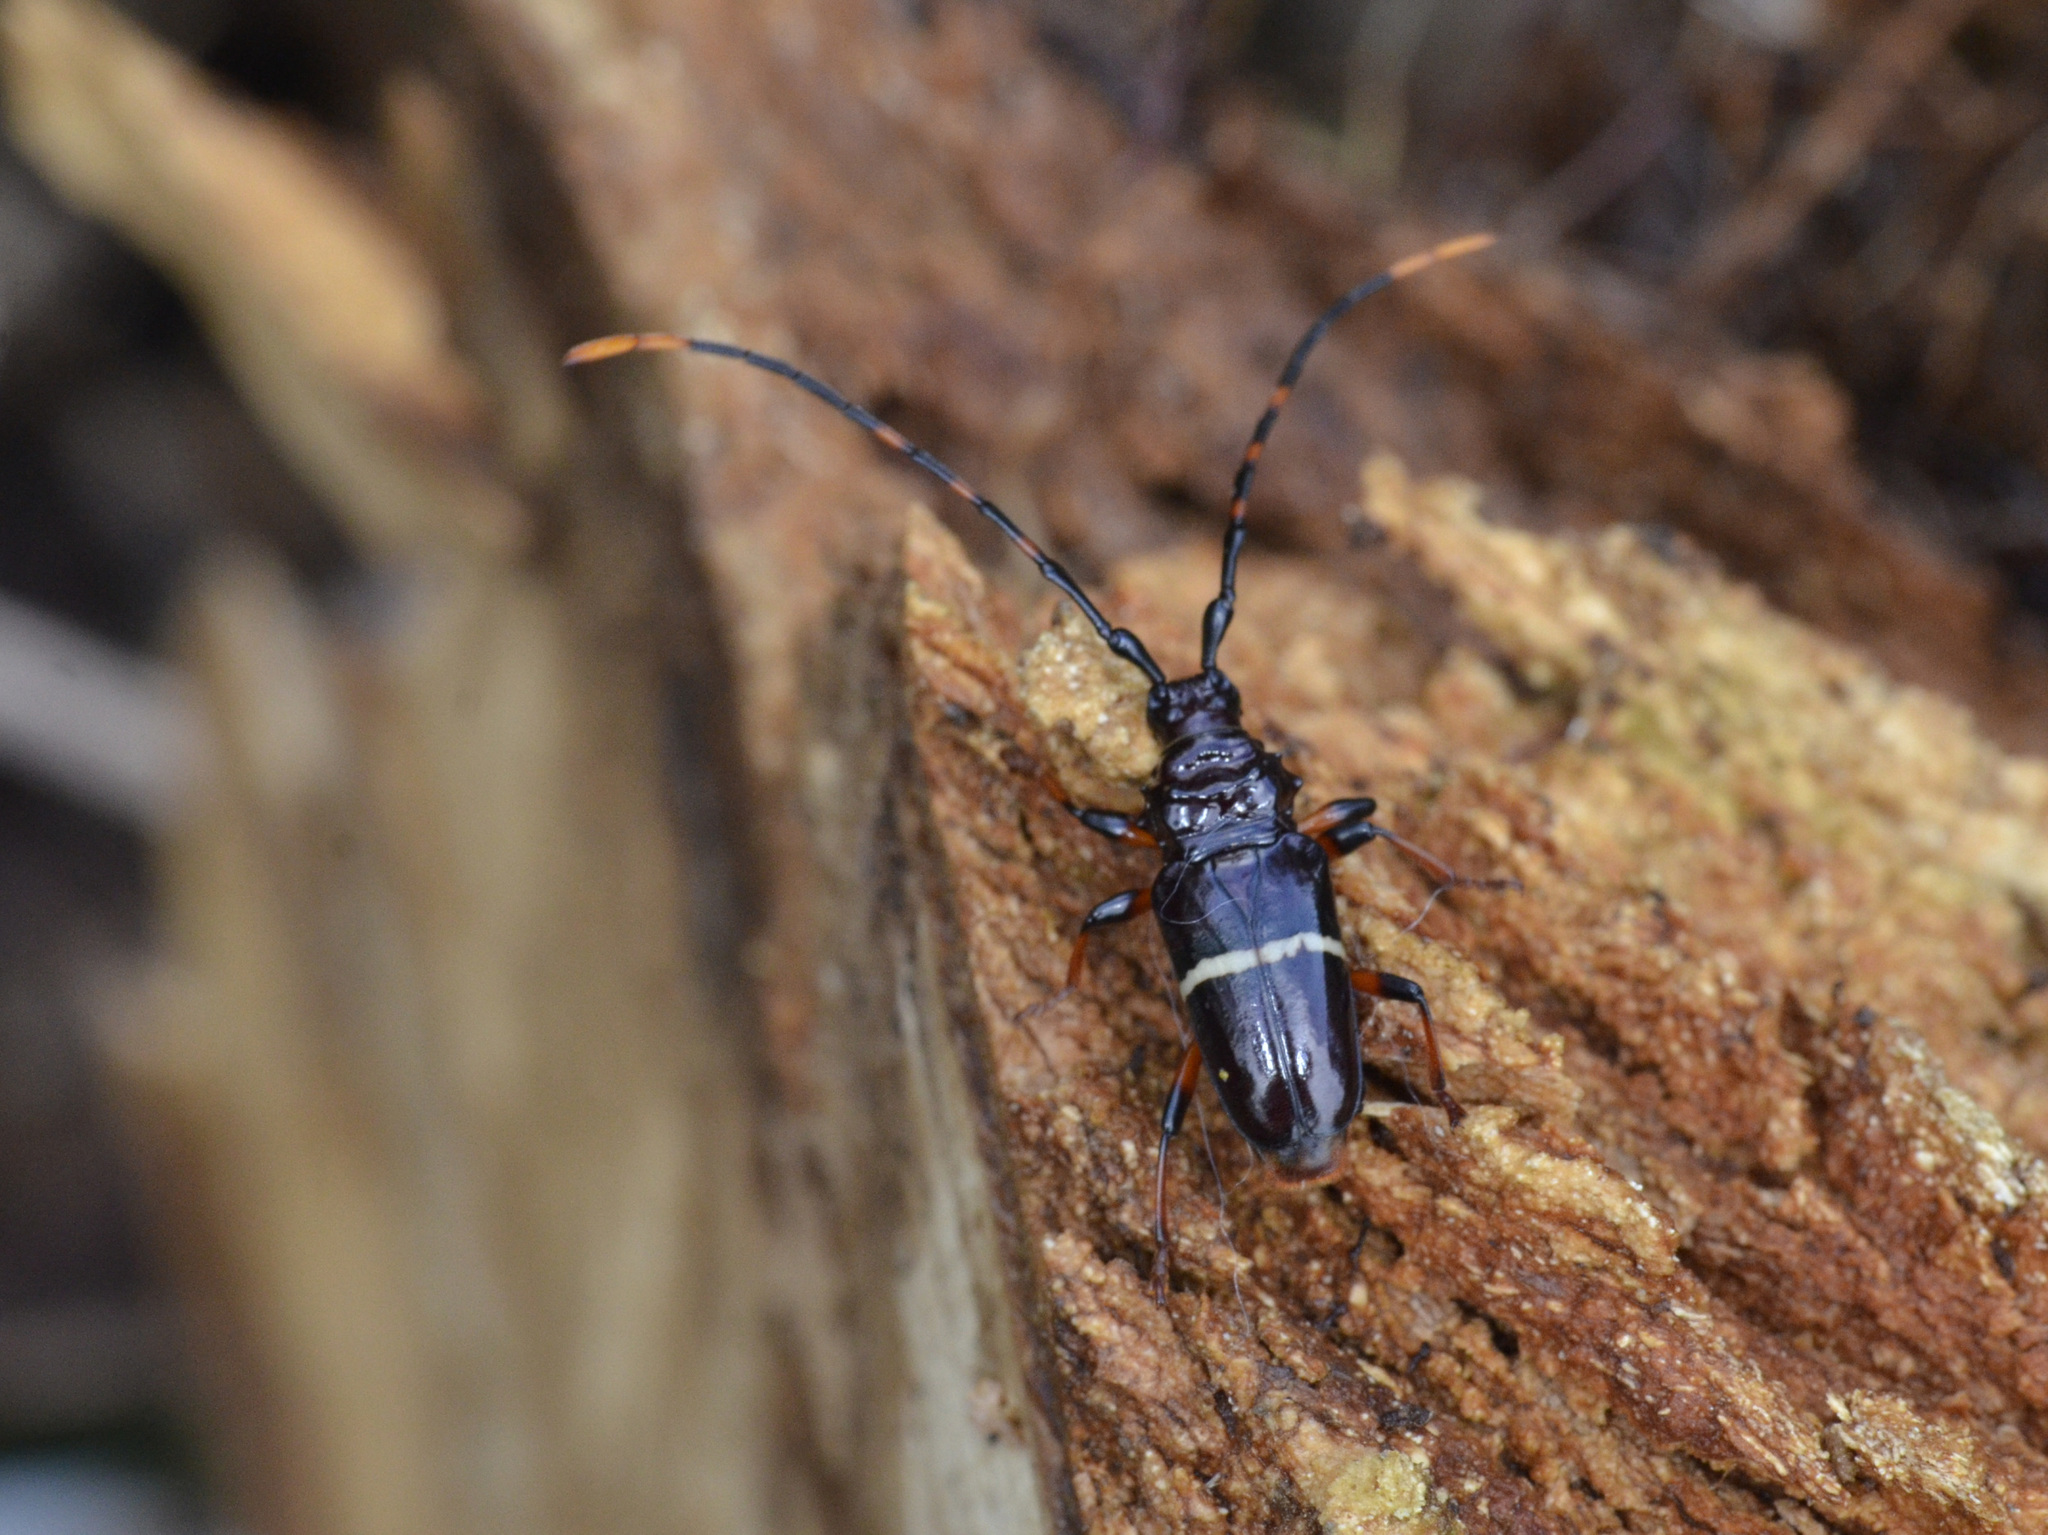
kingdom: Animalia
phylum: Arthropoda
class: Insecta
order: Coleoptera
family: Cerambycidae
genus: Trachyderes
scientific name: Trachyderes succinctus
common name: Mango longhorn
